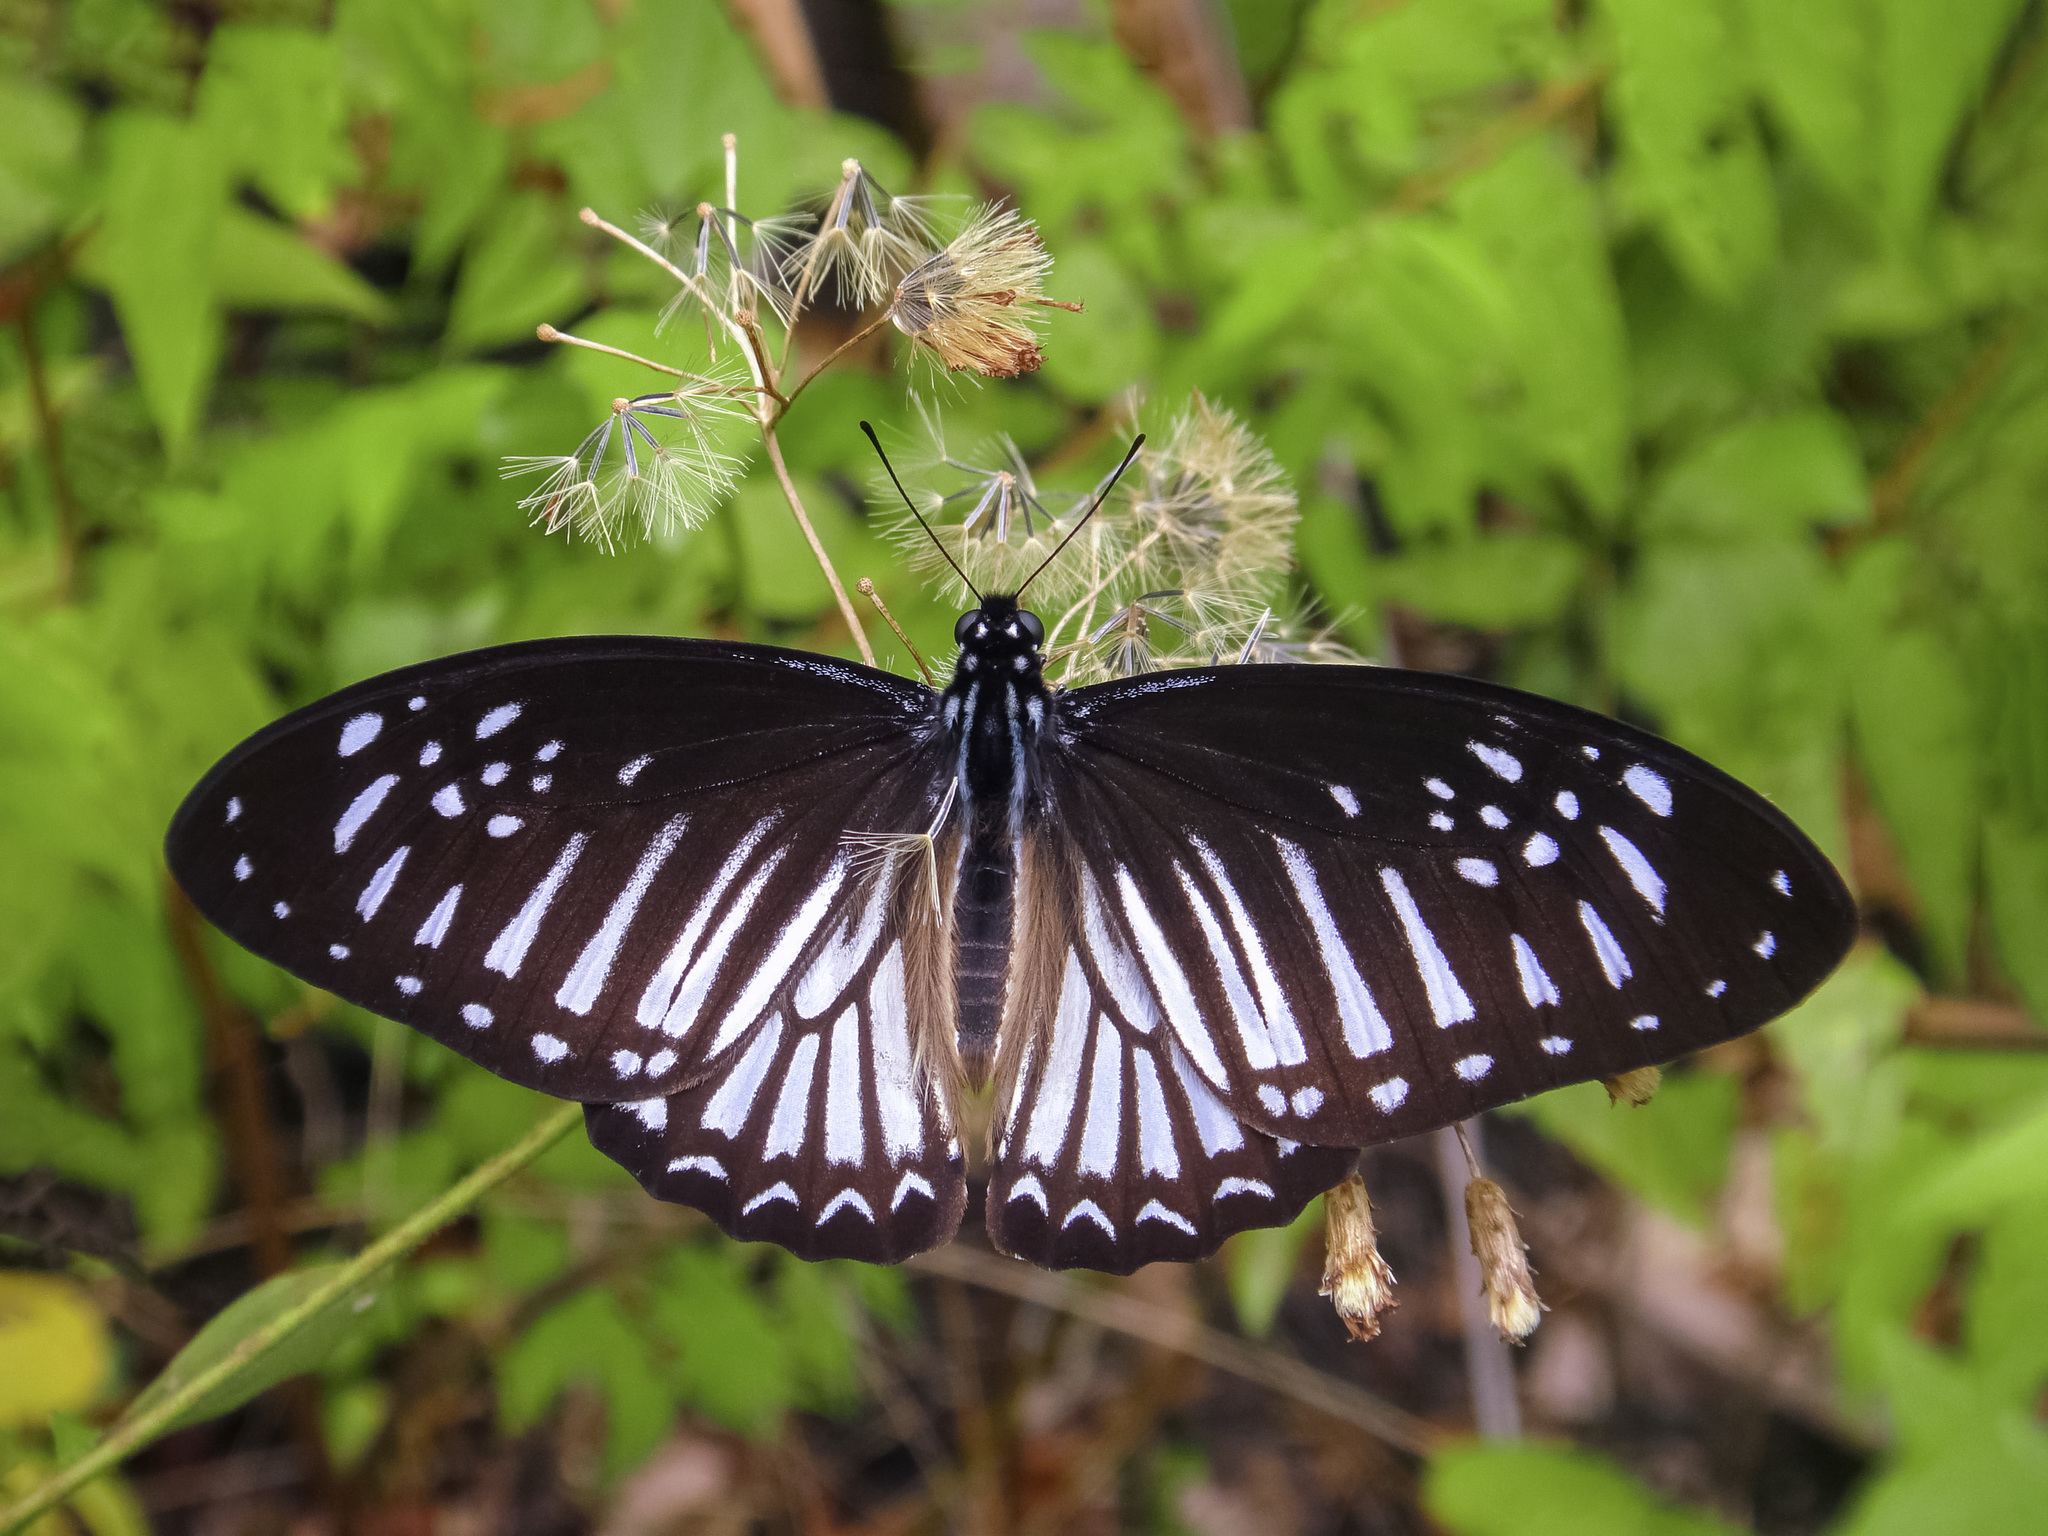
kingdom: Animalia
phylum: Arthropoda
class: Insecta
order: Lepidoptera
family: Papilionidae
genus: Graphium
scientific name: Graphium ramaceus
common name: Pendlebury's zebra
